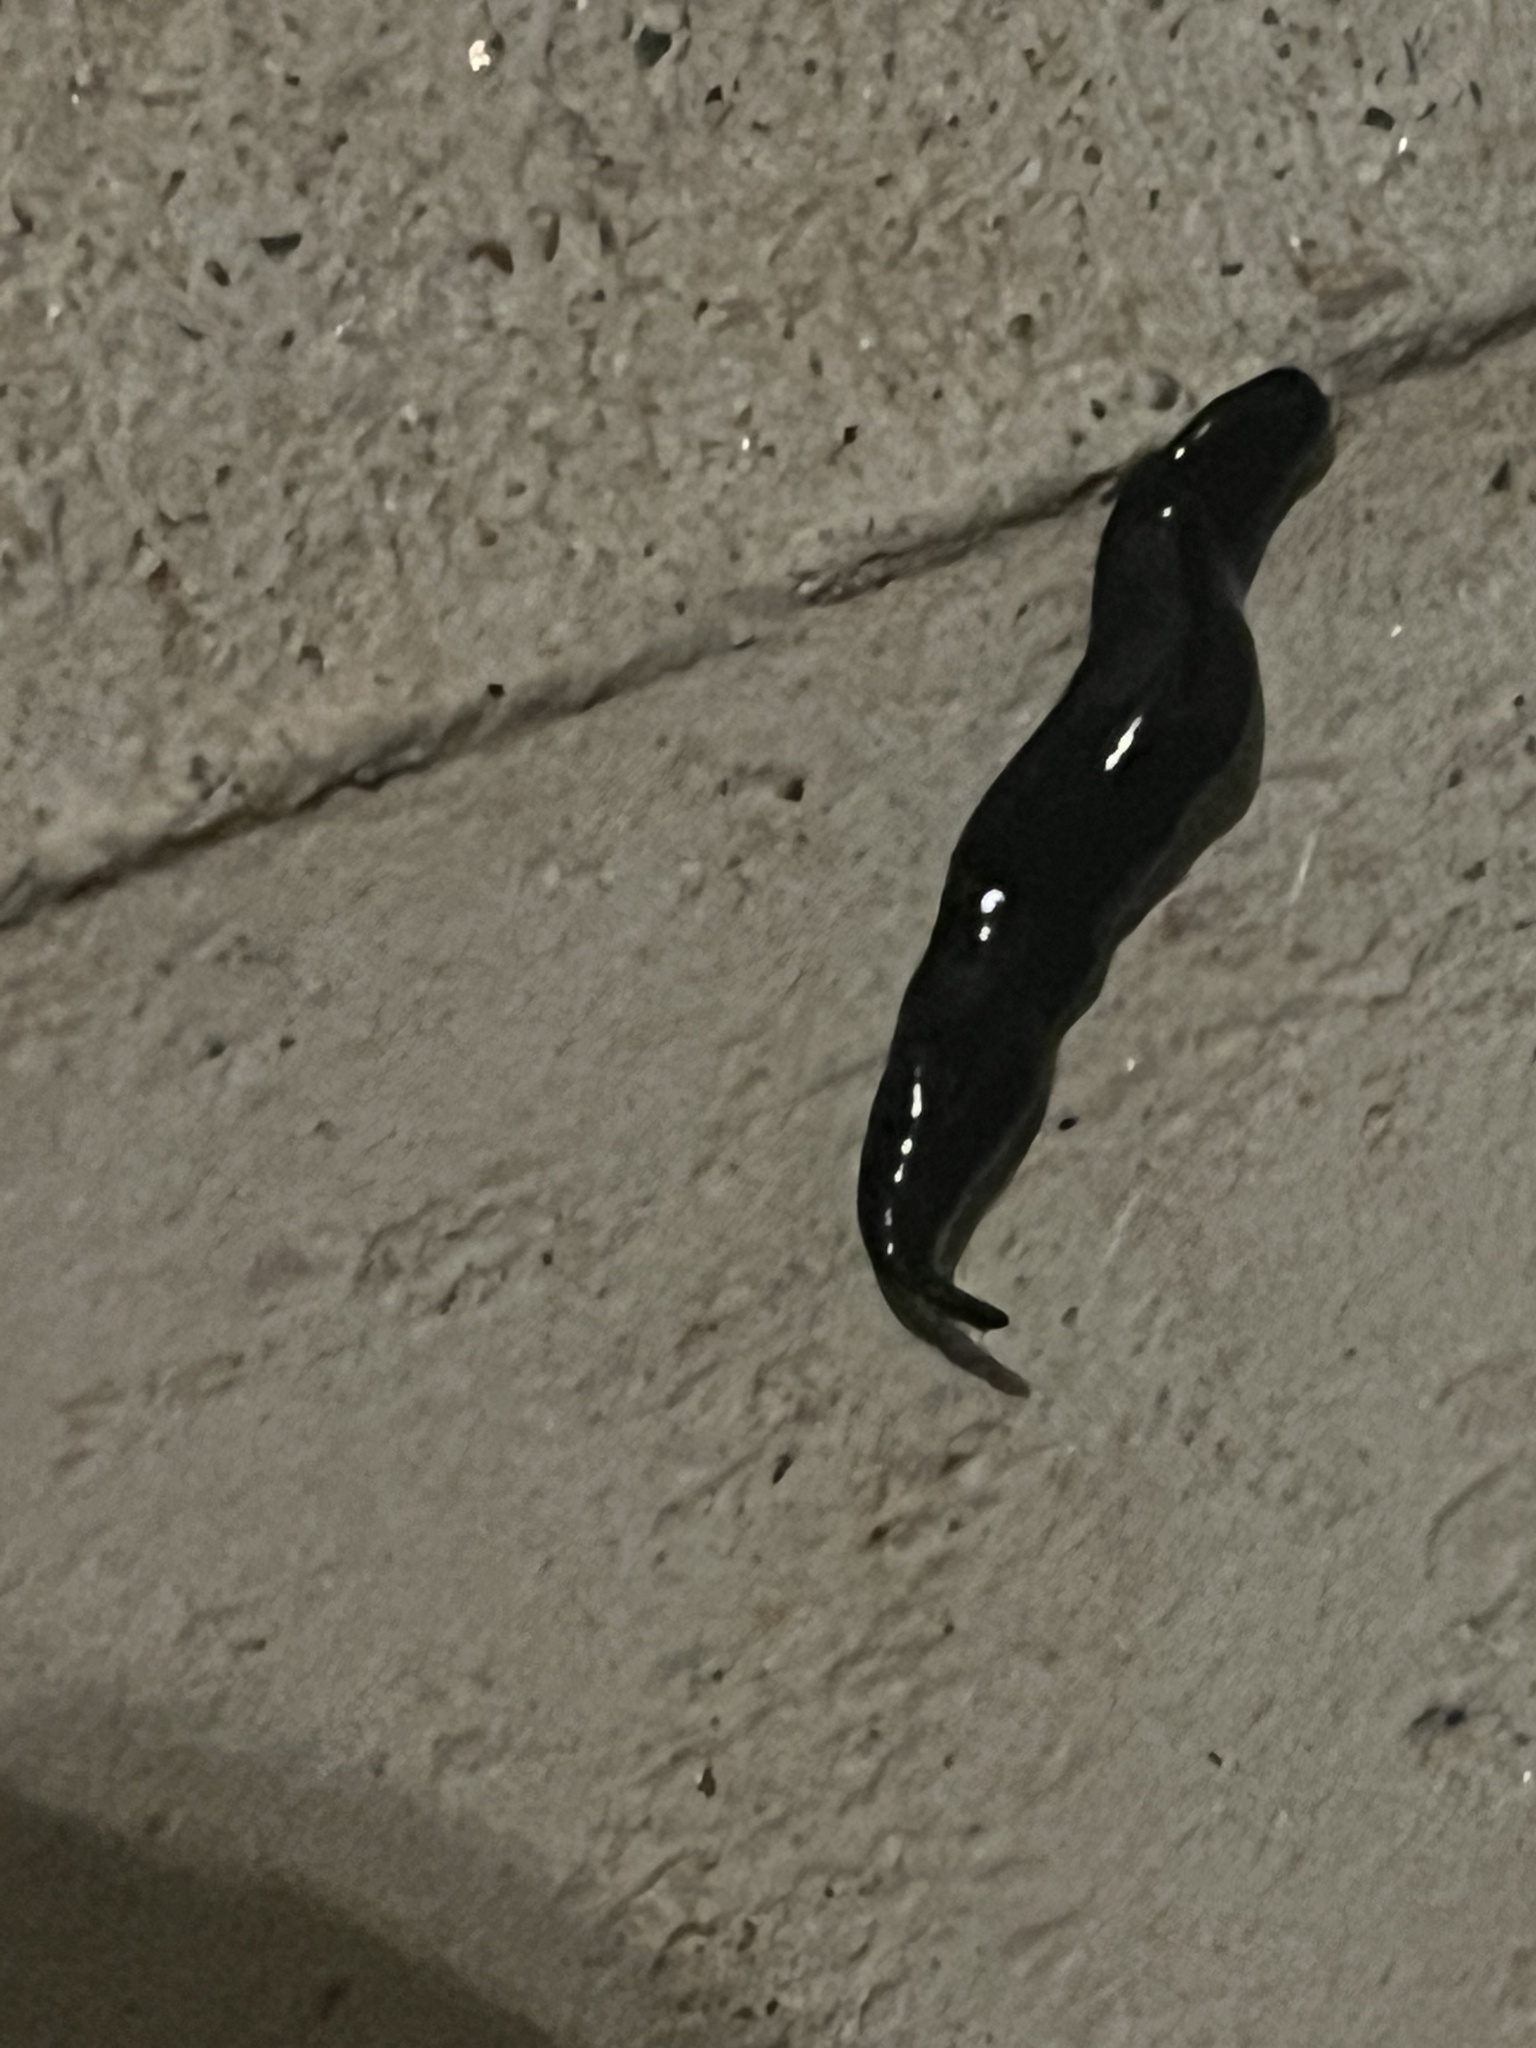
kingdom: Animalia
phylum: Platyhelminthes
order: Tricladida
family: Geoplanidae
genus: Platydemus
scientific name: Platydemus manokwari
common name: New guinea flatworm
